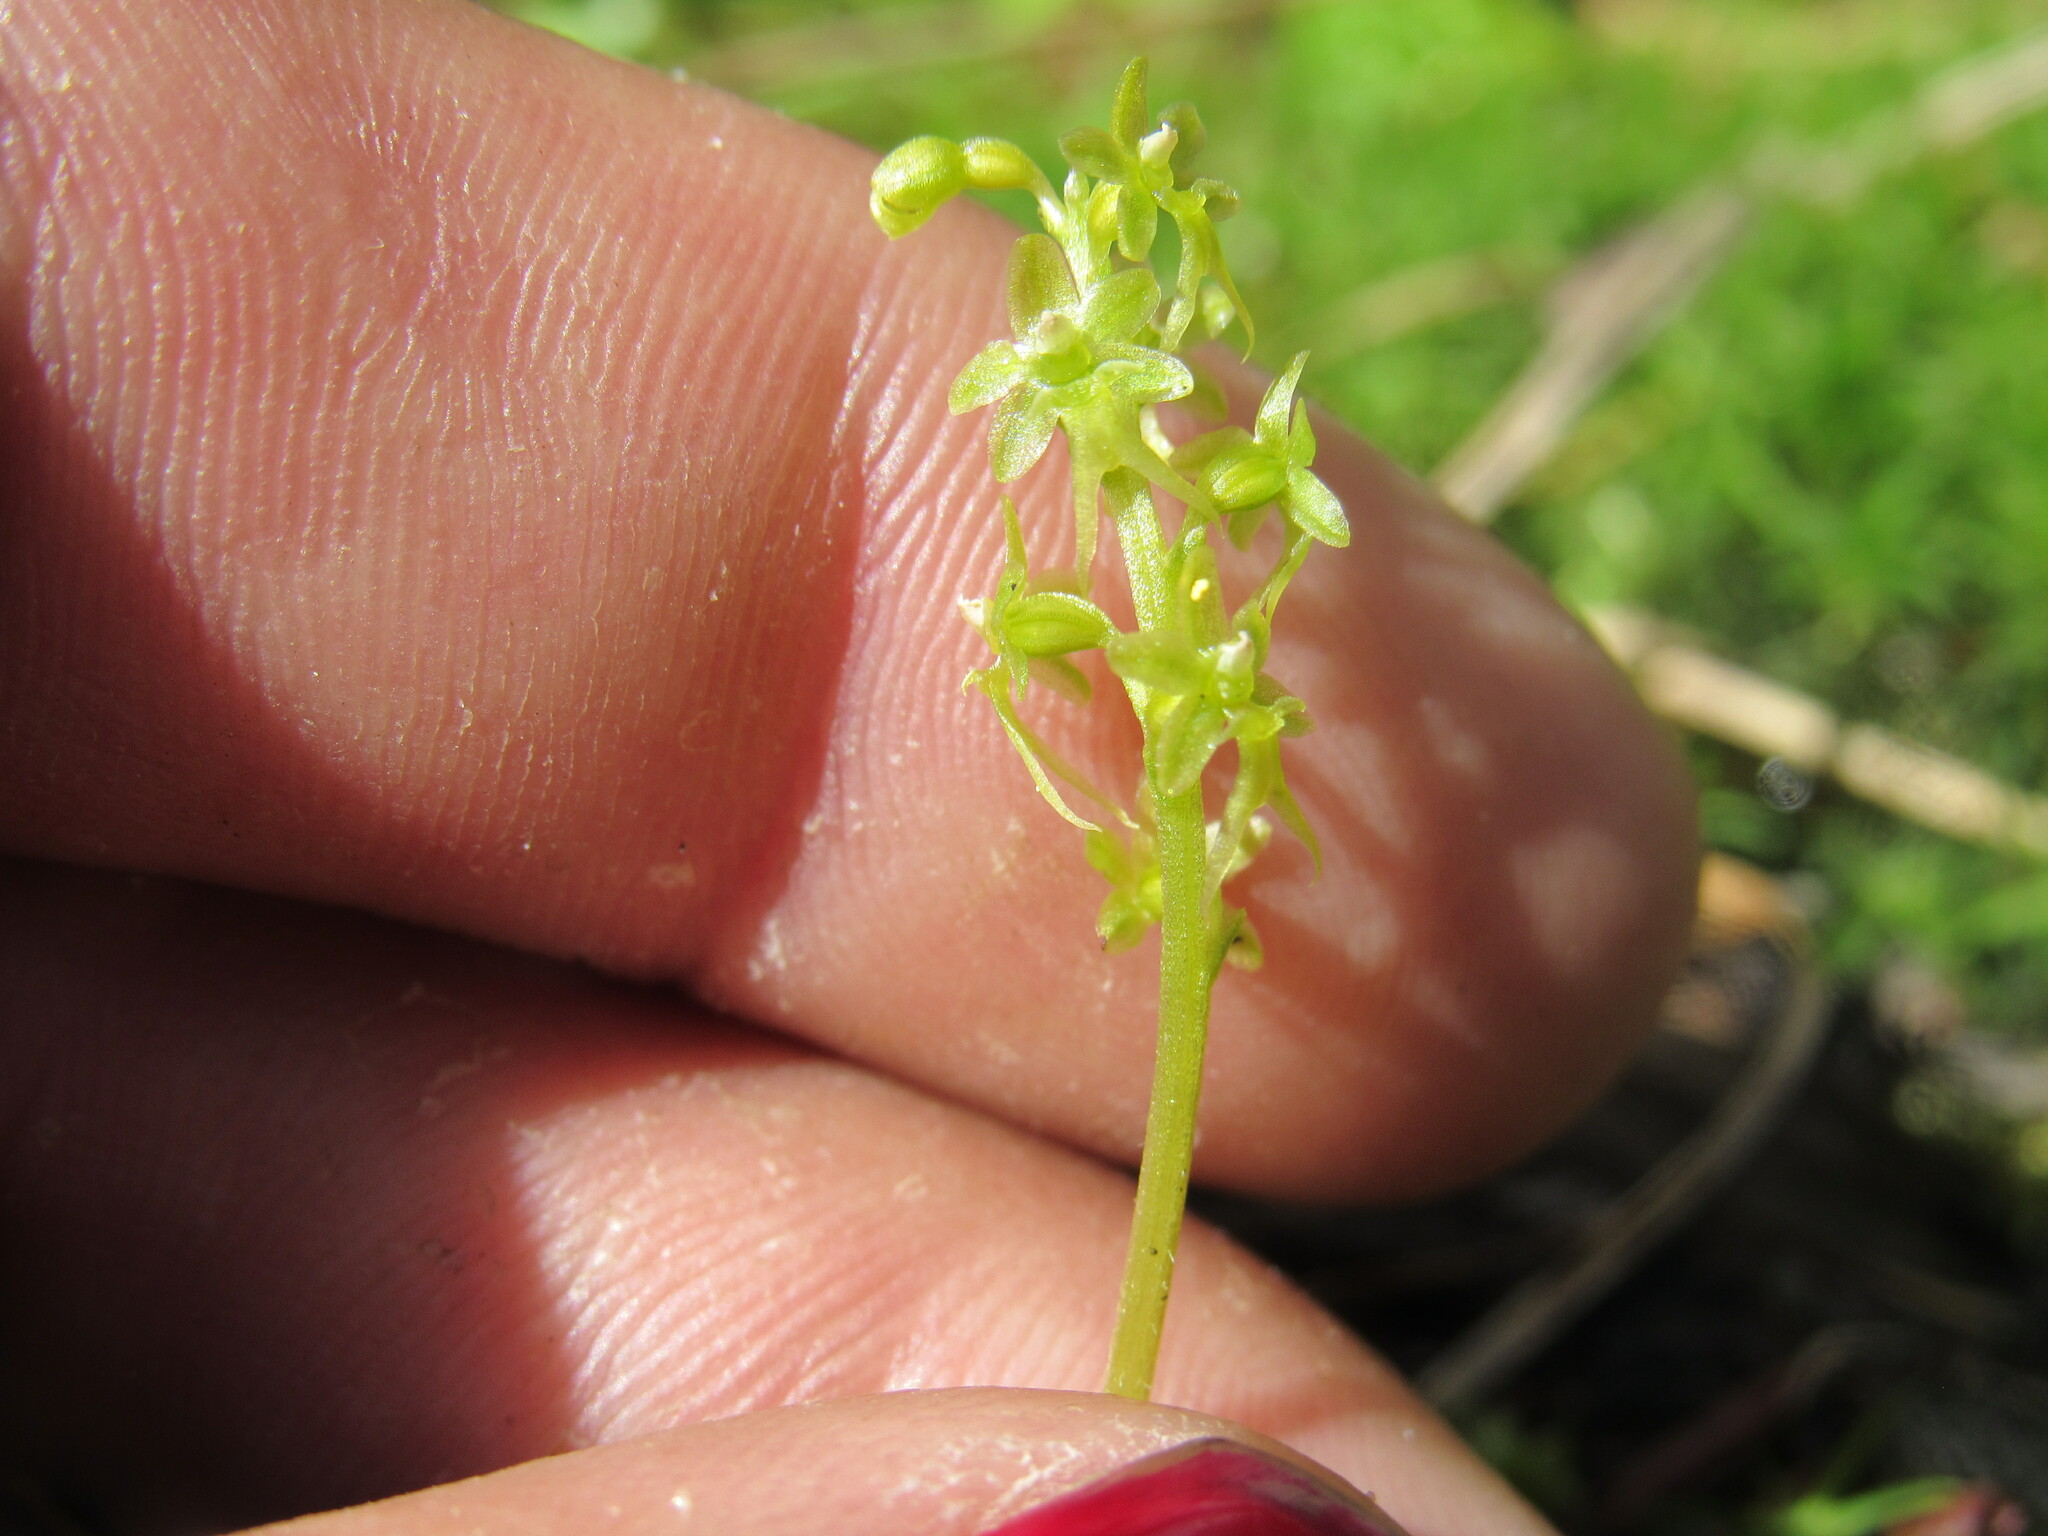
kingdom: Plantae
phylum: Tracheophyta
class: Liliopsida
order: Asparagales
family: Orchidaceae
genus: Neottia
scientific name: Neottia cordata
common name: Lesser twayblade
